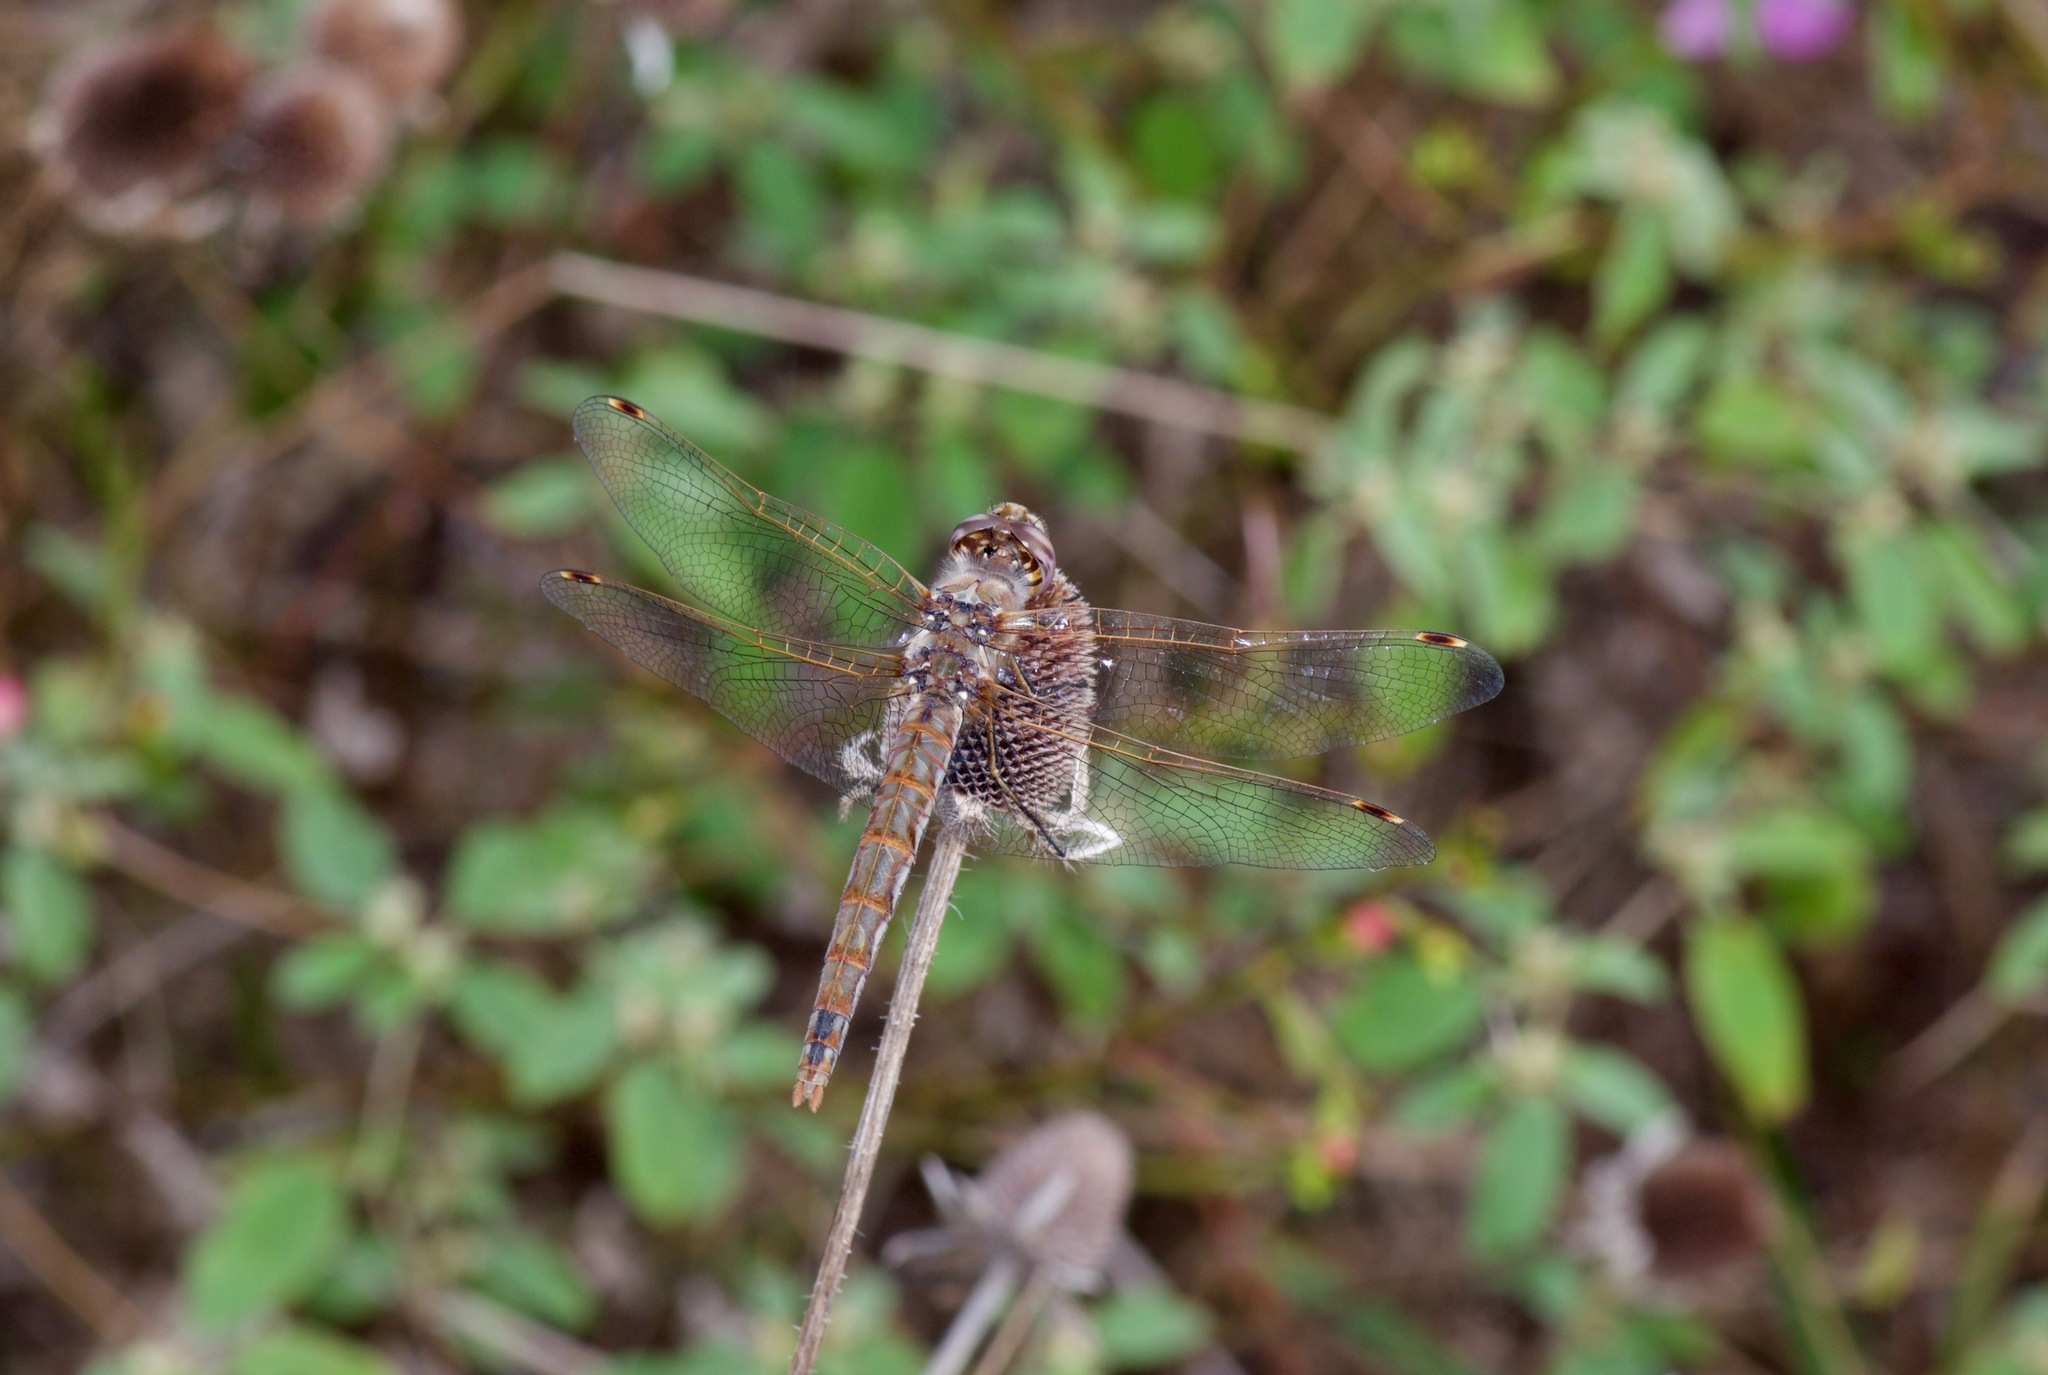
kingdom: Animalia
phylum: Arthropoda
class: Insecta
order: Odonata
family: Libellulidae
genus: Sympetrum
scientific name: Sympetrum corruptum
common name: Variegated meadowhawk
